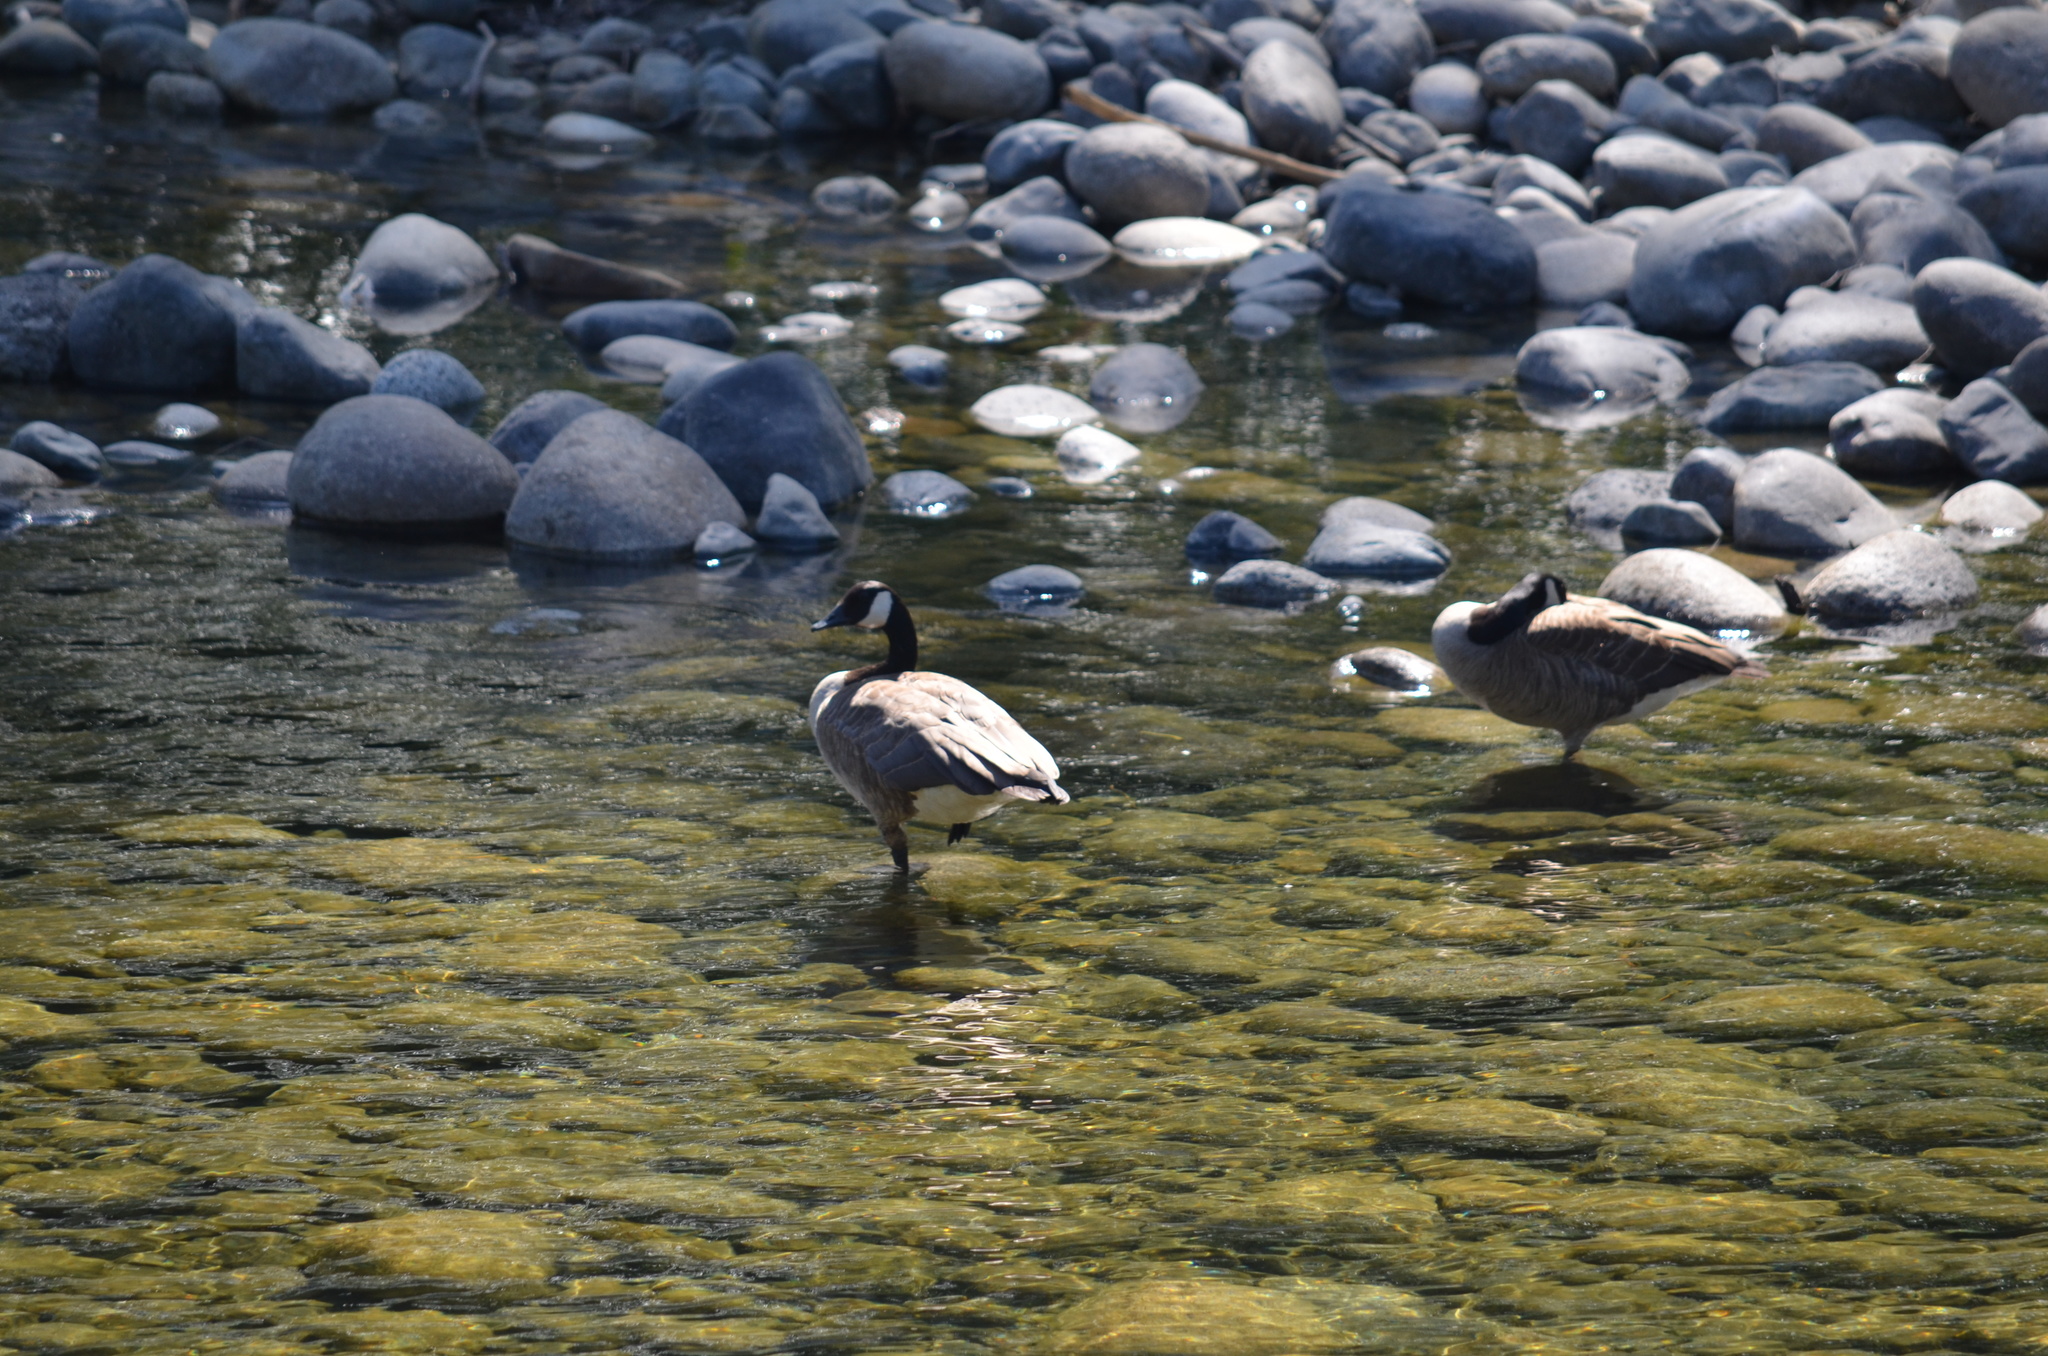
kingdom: Animalia
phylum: Chordata
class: Aves
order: Anseriformes
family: Anatidae
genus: Branta
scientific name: Branta canadensis
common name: Canada goose
